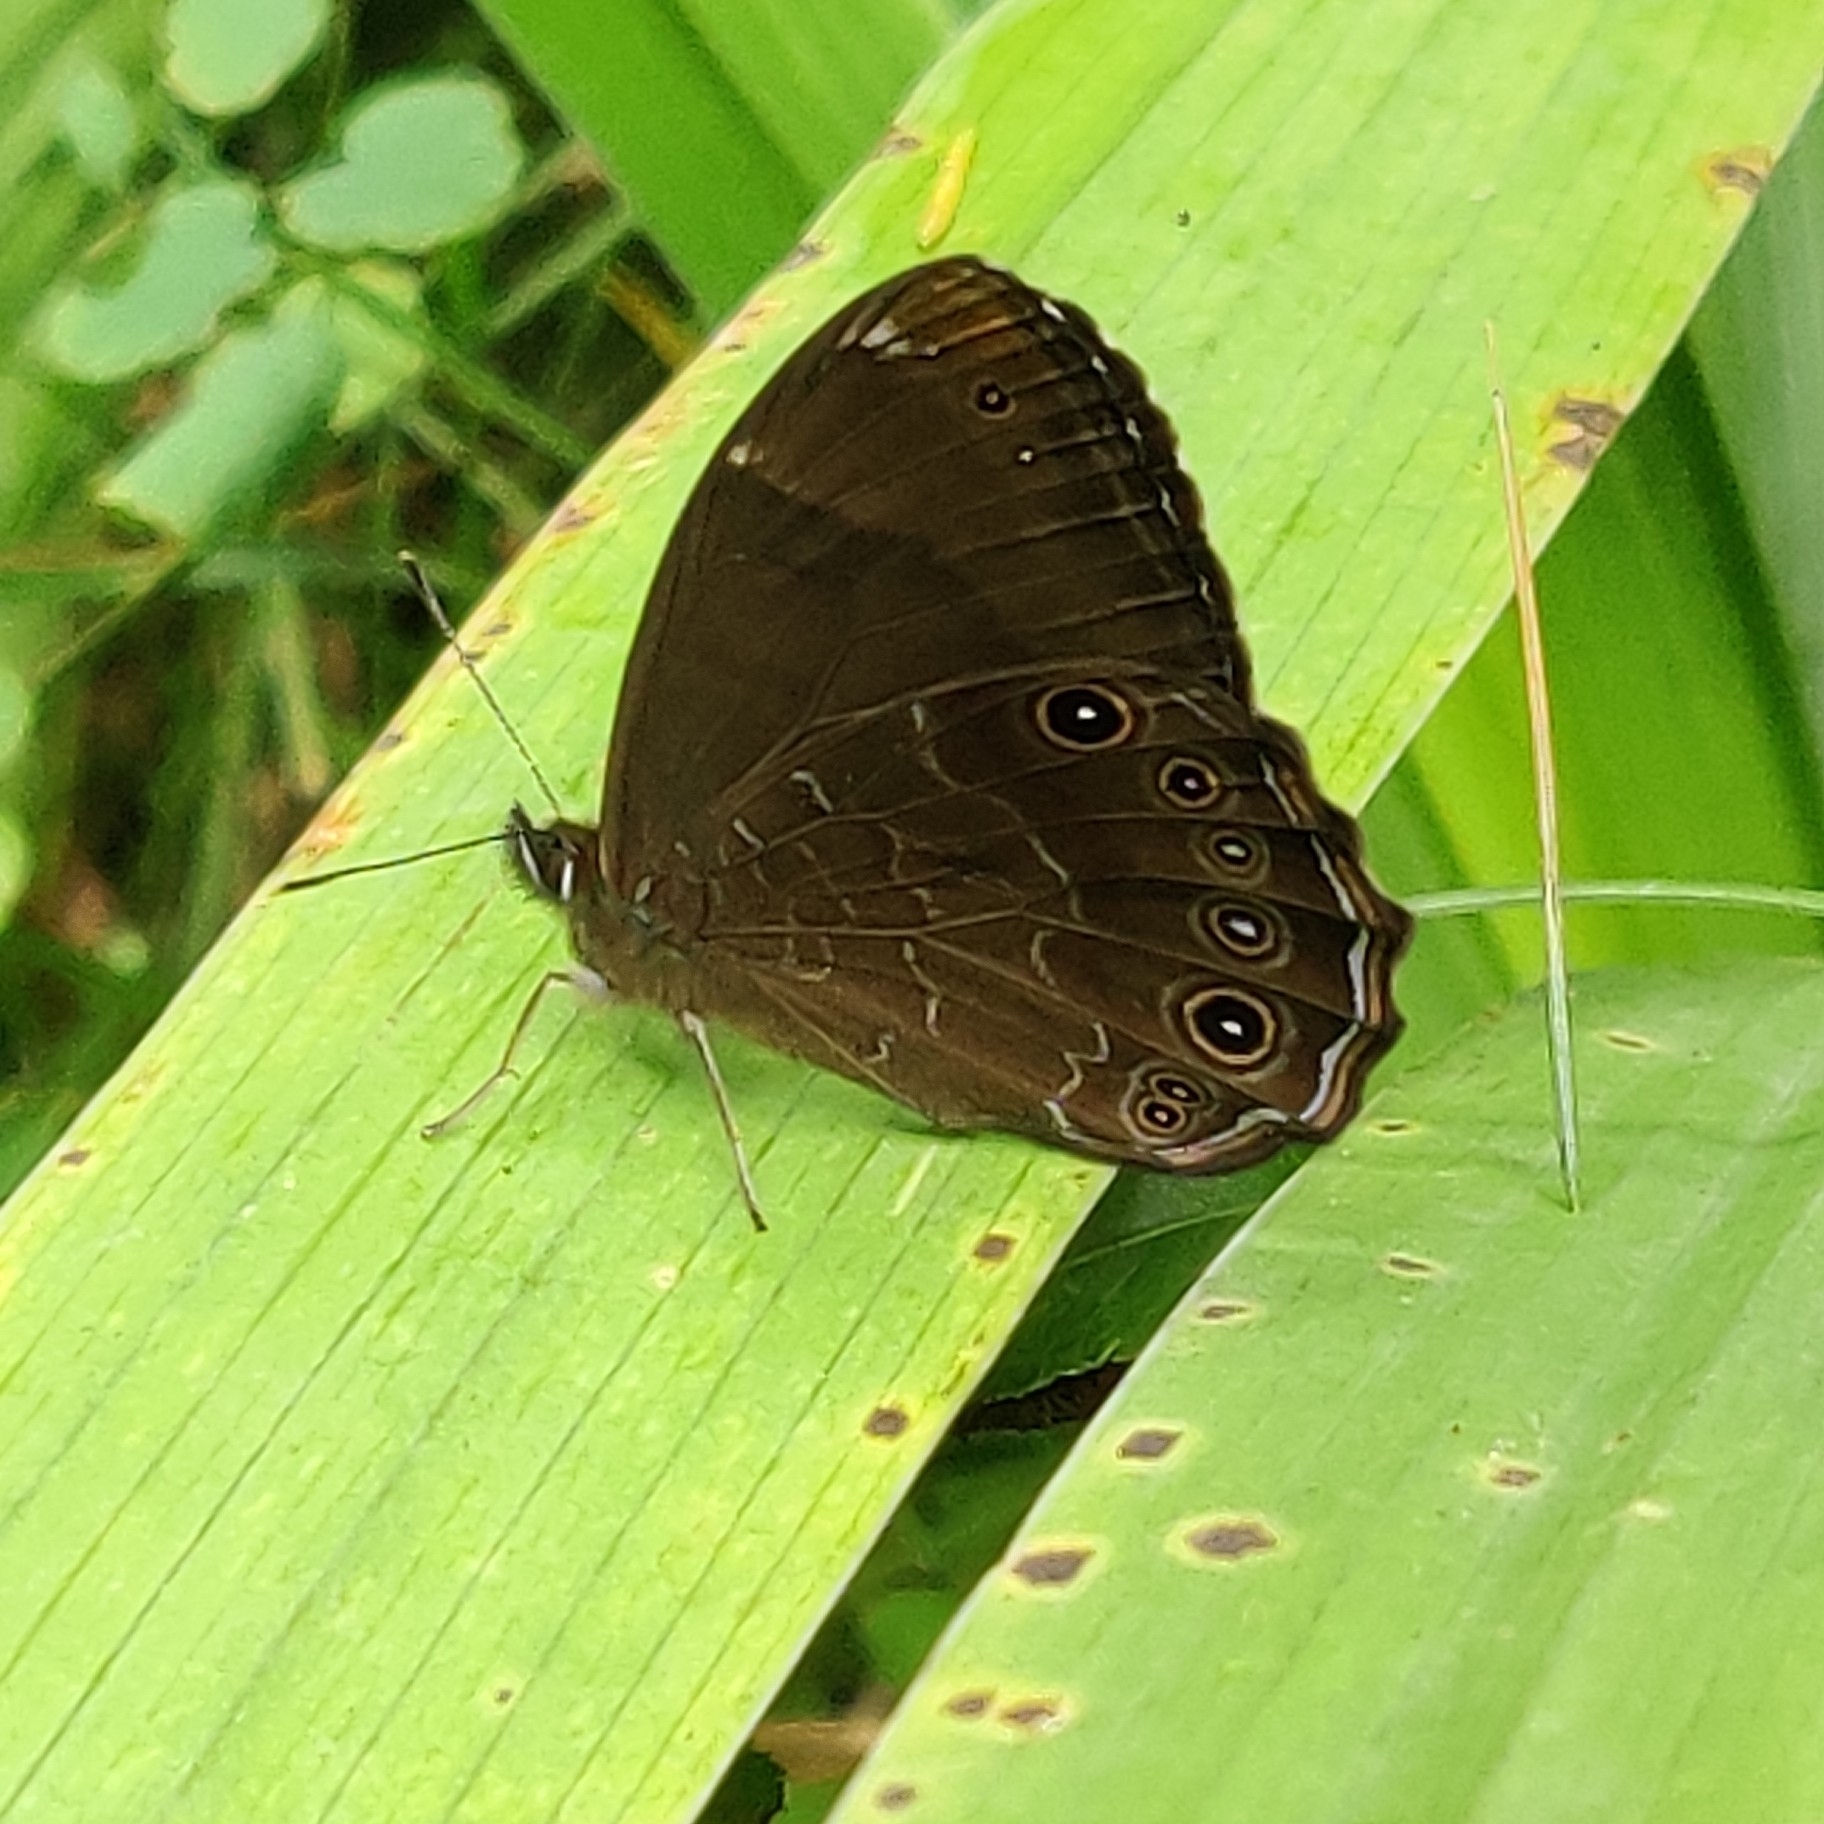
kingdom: Animalia
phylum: Arthropoda
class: Insecta
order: Lepidoptera
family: Nymphalidae
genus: Lethe
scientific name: Lethe sidonis
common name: Common woodbrown butterfly
